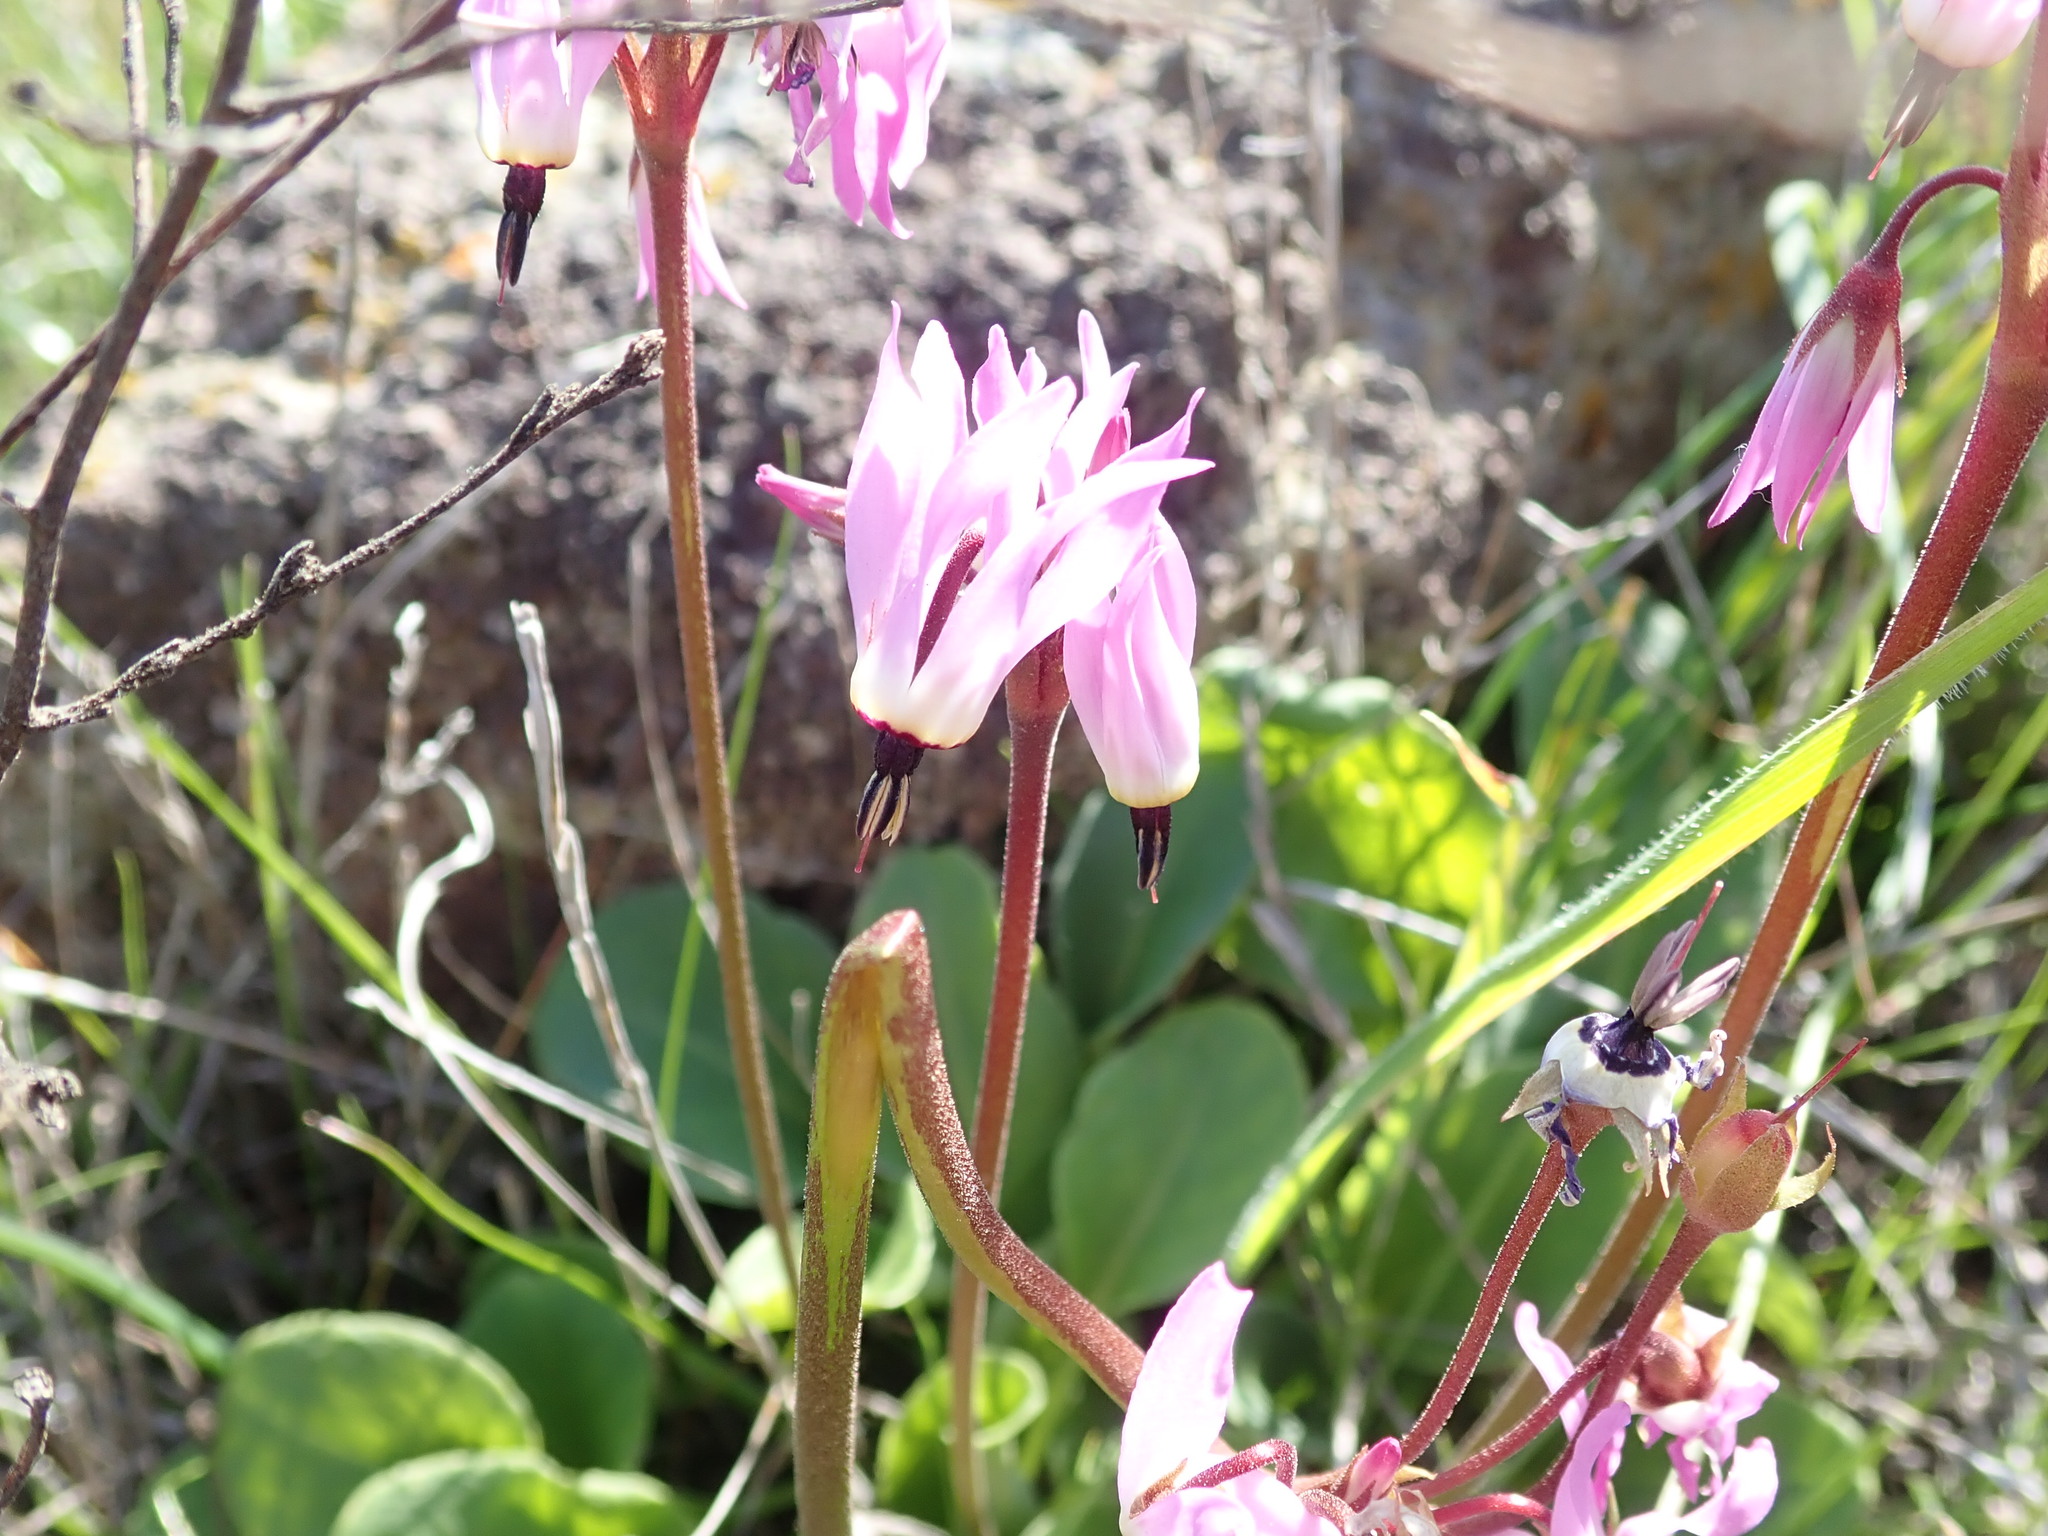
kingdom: Plantae
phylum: Tracheophyta
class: Magnoliopsida
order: Ericales
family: Primulaceae
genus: Dodecatheon
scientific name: Dodecatheon hendersonii
